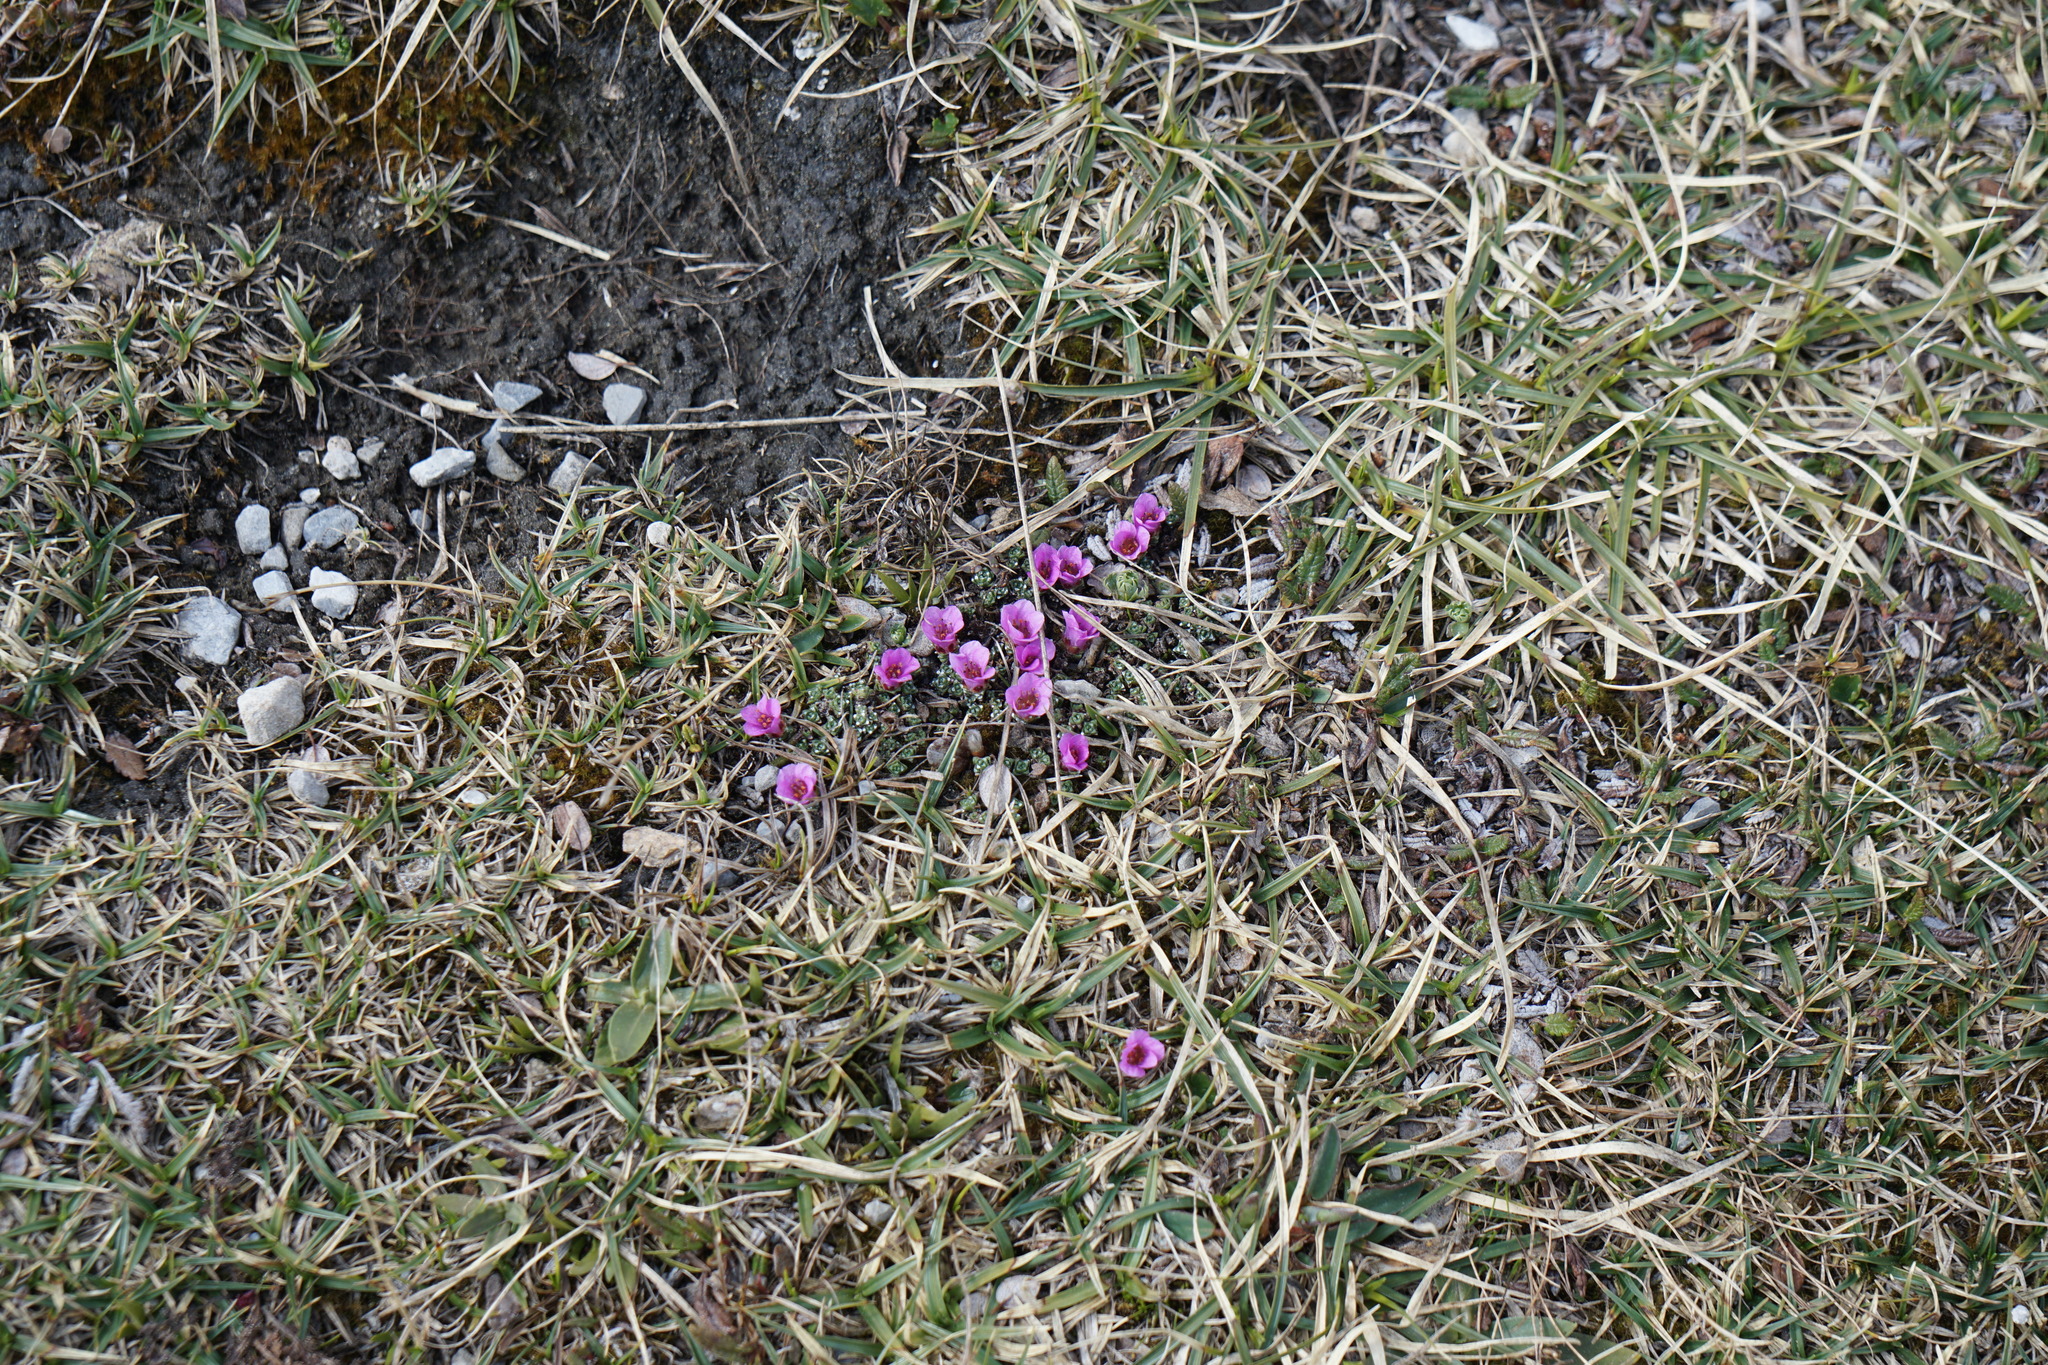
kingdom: Plantae
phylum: Tracheophyta
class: Magnoliopsida
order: Saxifragales
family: Saxifragaceae
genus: Saxifraga
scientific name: Saxifraga oppositifolia
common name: Purple saxifrage
